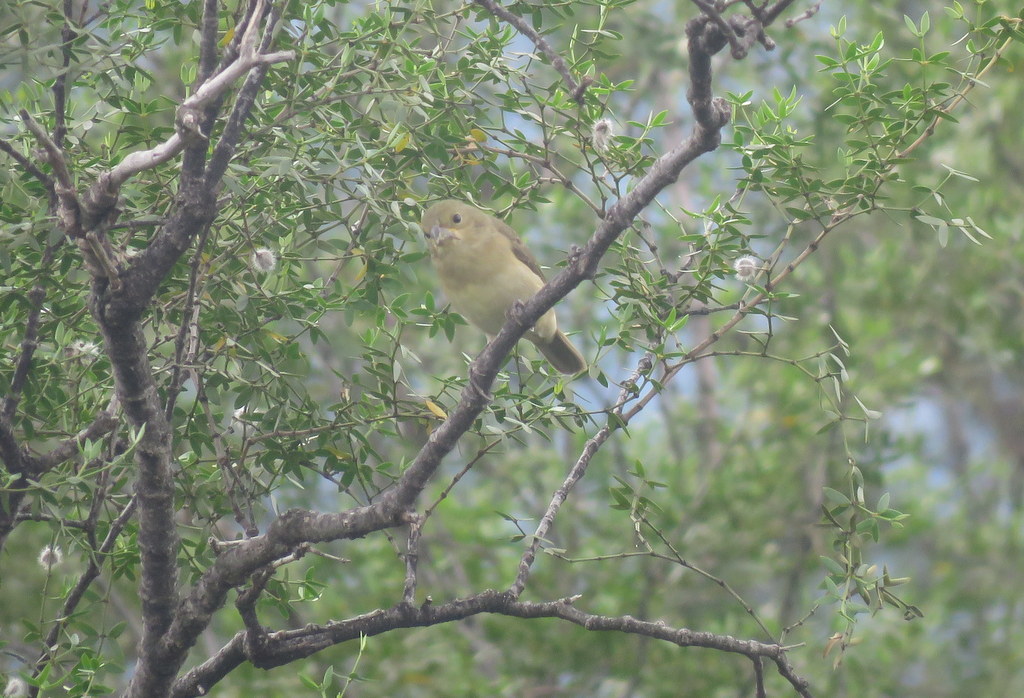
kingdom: Animalia
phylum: Chordata
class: Aves
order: Passeriformes
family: Thraupidae
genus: Sporophila
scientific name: Sporophila caerulescens
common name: Double-collared seedeater
